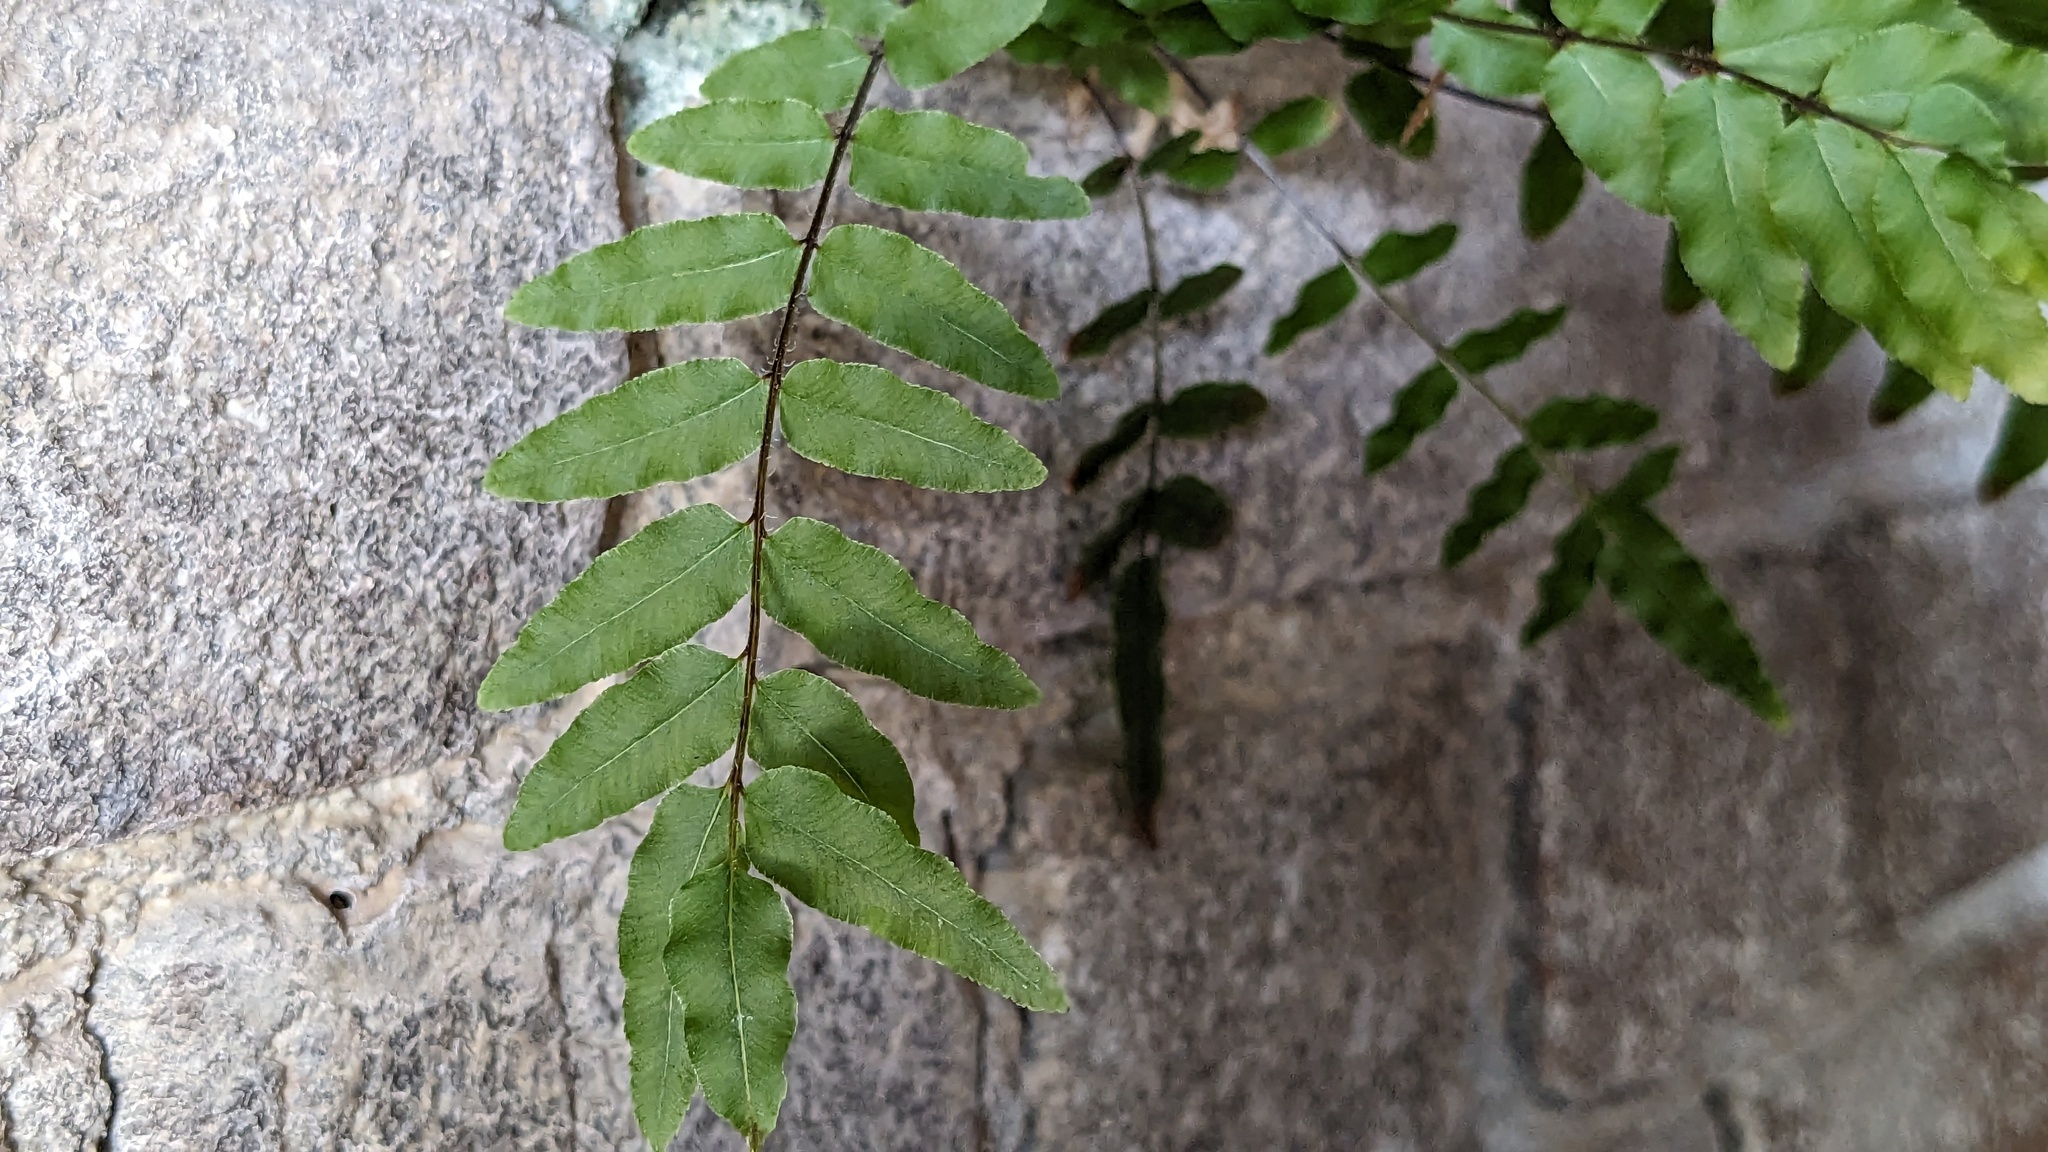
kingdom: Plantae
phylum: Tracheophyta
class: Polypodiopsida
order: Polypodiales
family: Pteridaceae
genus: Pteris
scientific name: Pteris vittata
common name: Ladder brake
